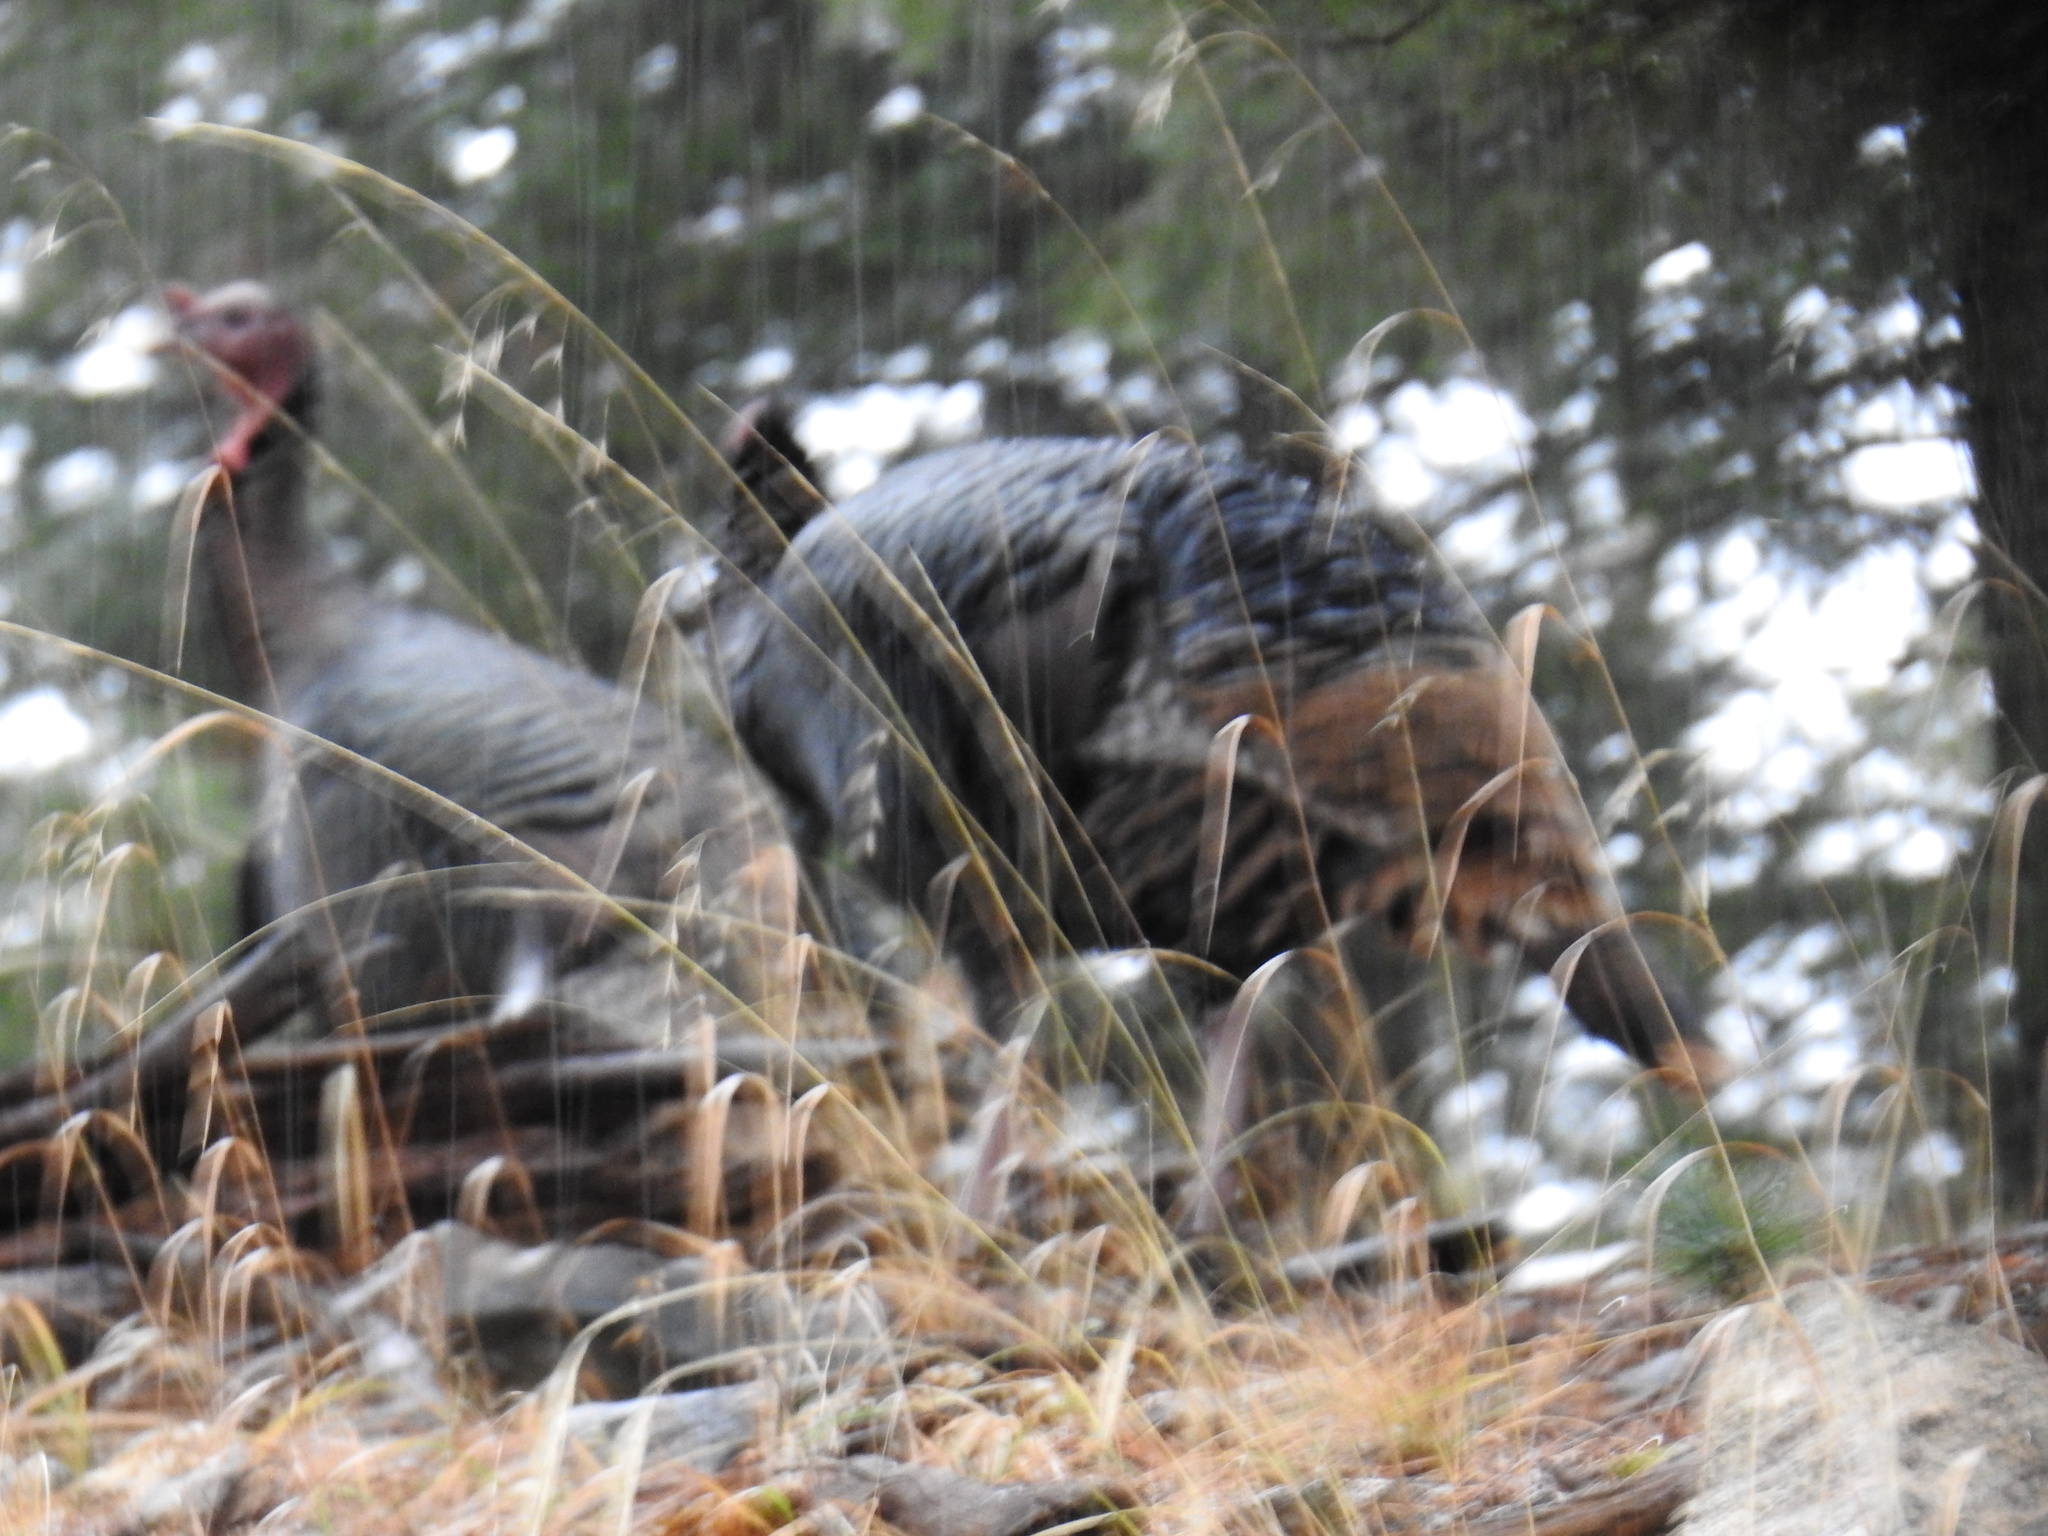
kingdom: Animalia
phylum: Chordata
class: Aves
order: Galliformes
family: Phasianidae
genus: Meleagris
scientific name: Meleagris gallopavo
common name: Wild turkey
